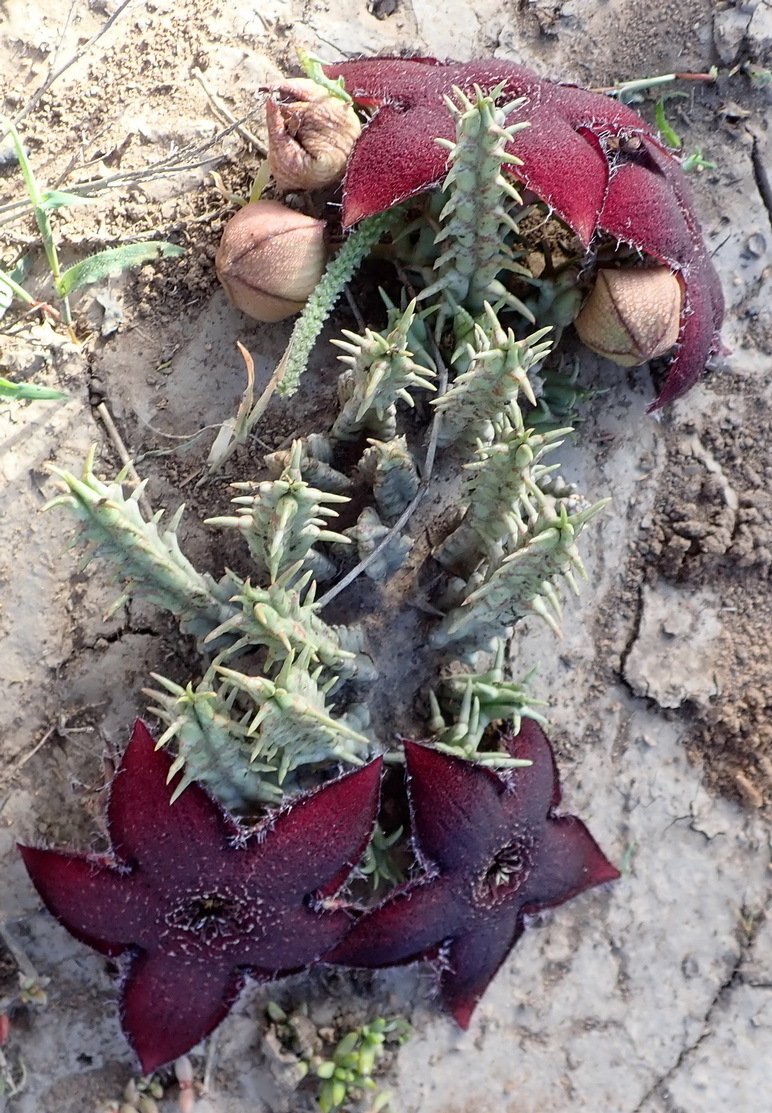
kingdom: Plantae
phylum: Tracheophyta
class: Magnoliopsida
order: Gentianales
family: Apocynaceae
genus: Ceropegia
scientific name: Ceropegia gemmiflora
